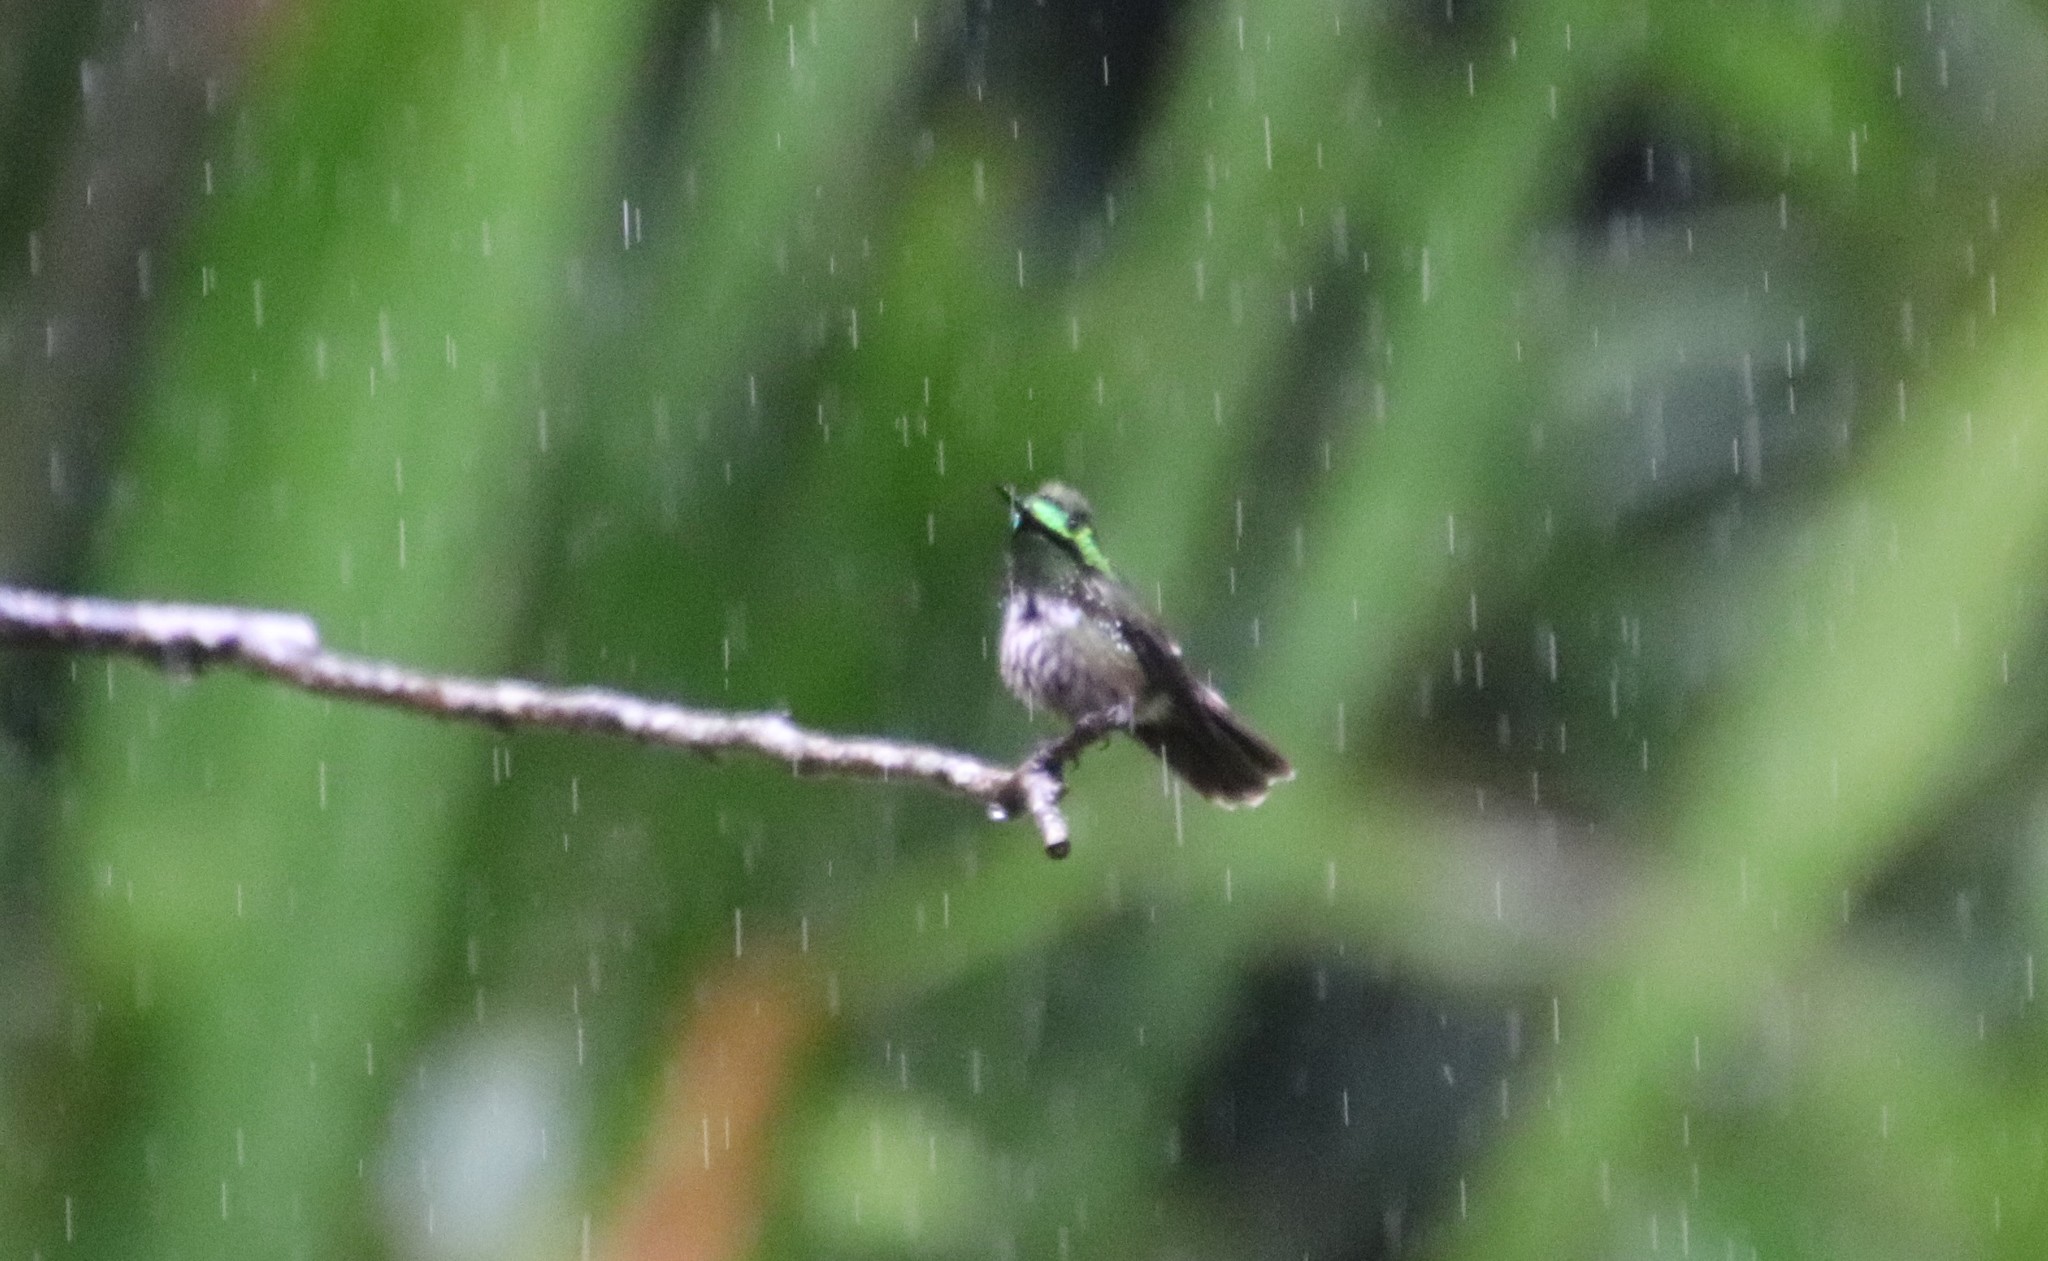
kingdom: Animalia
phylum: Chordata
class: Aves
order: Apodiformes
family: Trochilidae
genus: Lophornis
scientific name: Lophornis chalybeus
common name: Festive coquette
